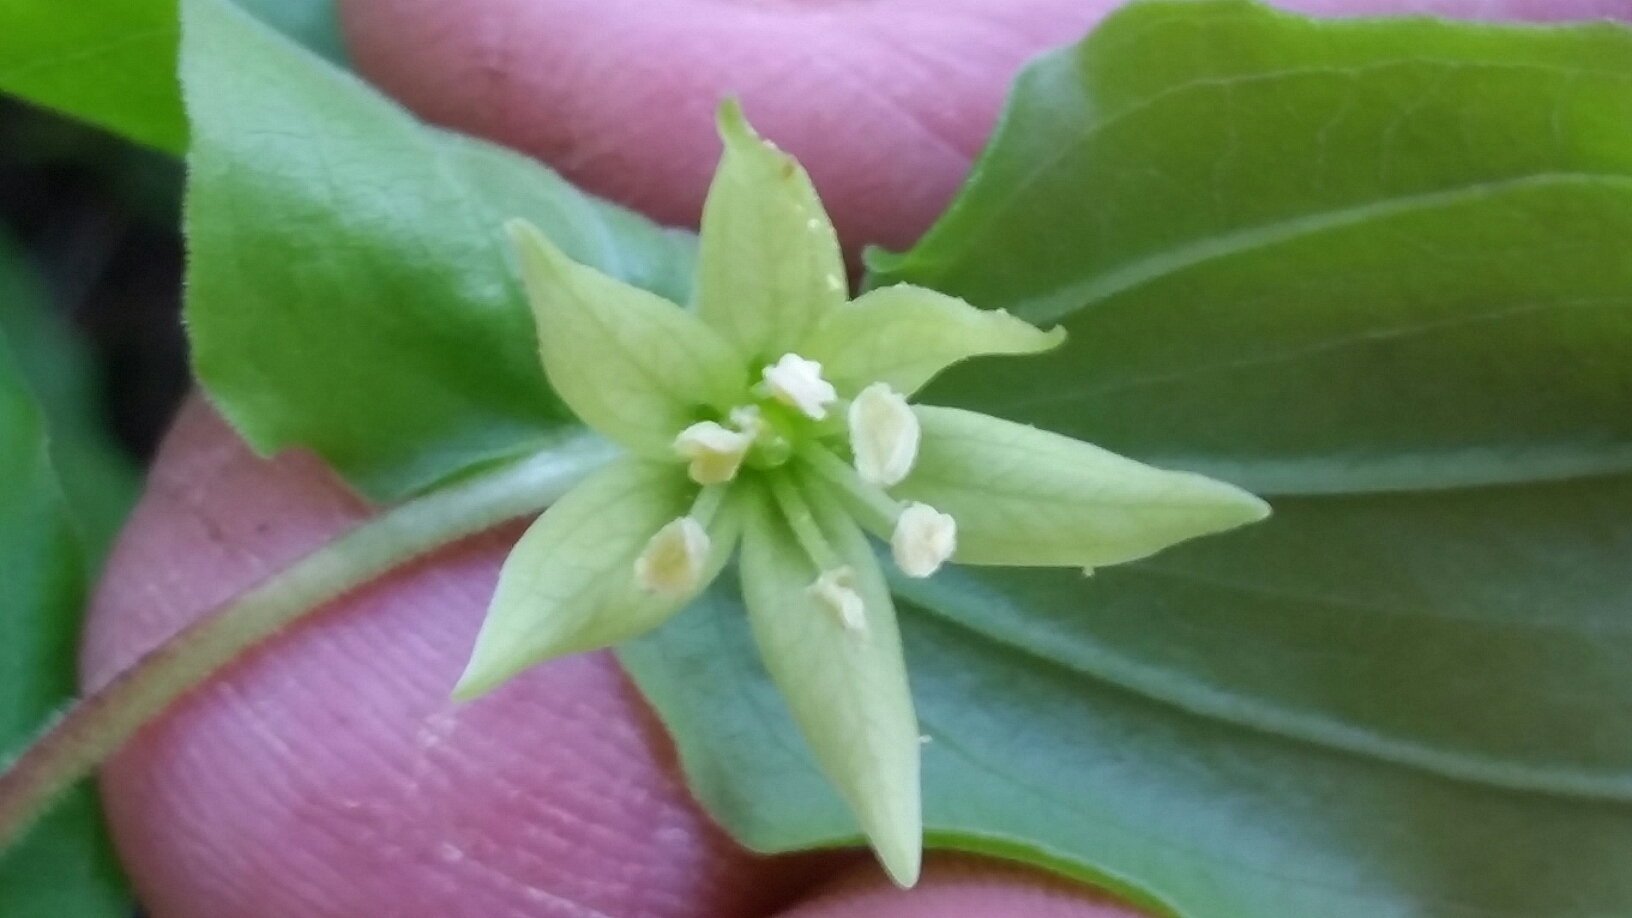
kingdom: Plantae
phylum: Tracheophyta
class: Liliopsida
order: Liliales
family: Liliaceae
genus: Prosartes
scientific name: Prosartes hookeri
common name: Fairy-bells
